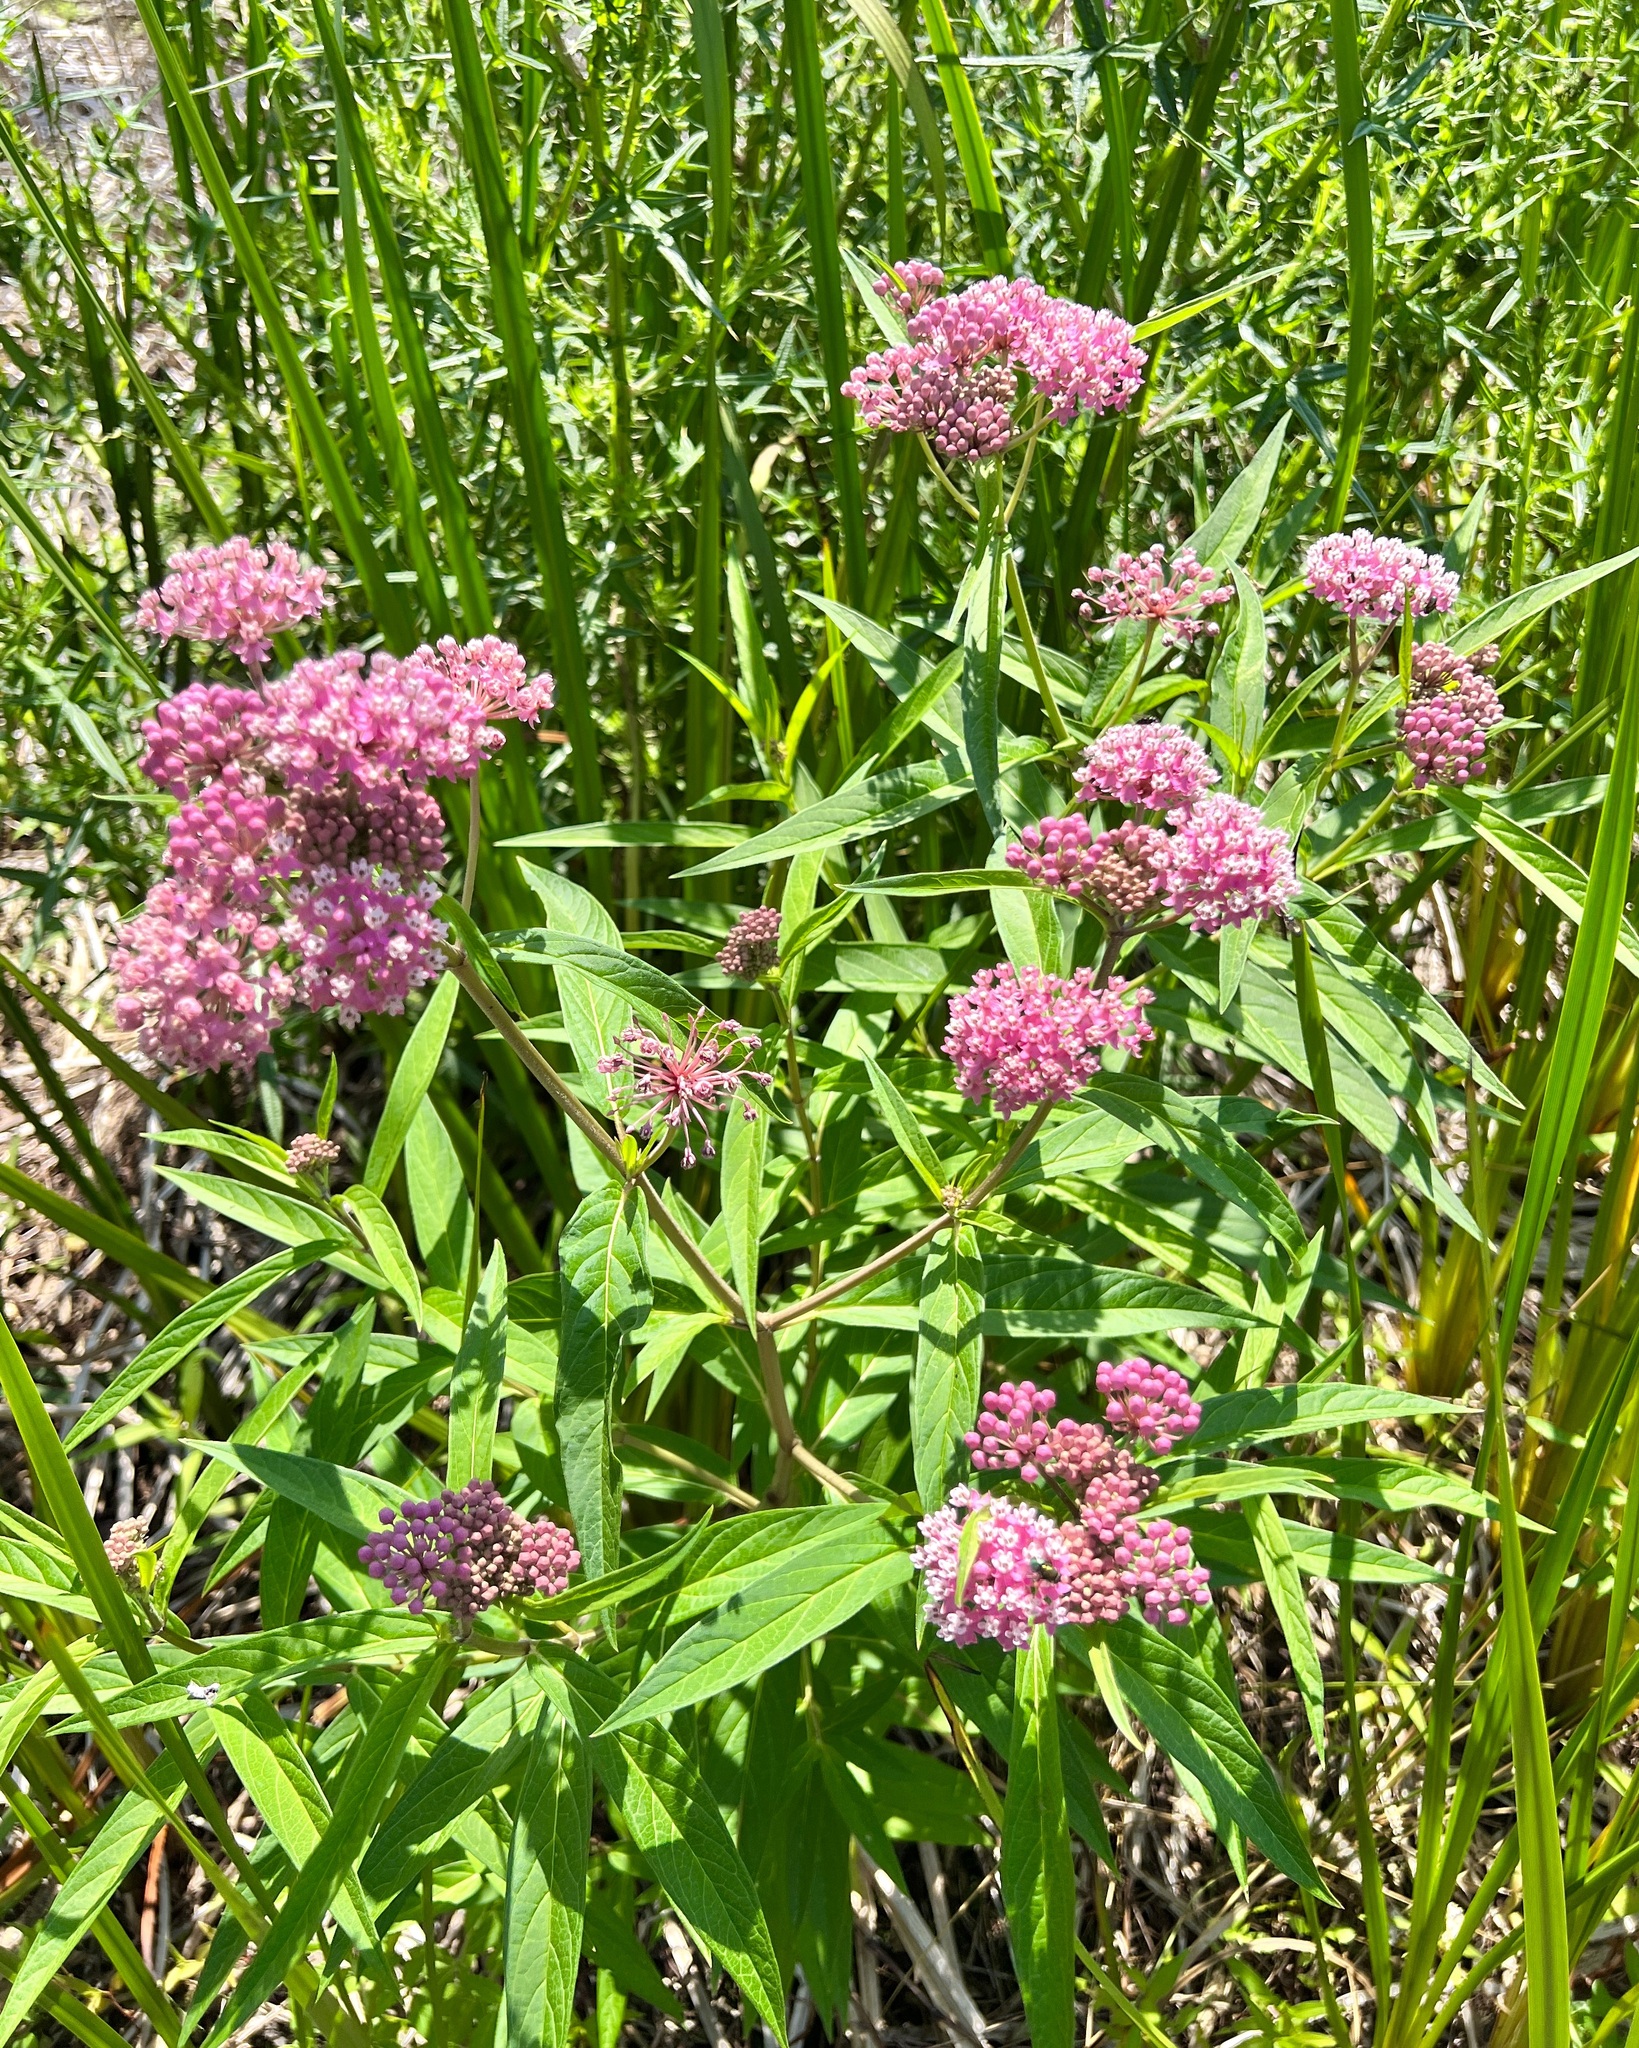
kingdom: Plantae
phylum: Tracheophyta
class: Magnoliopsida
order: Gentianales
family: Apocynaceae
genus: Asclepias
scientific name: Asclepias incarnata
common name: Swamp milkweed
